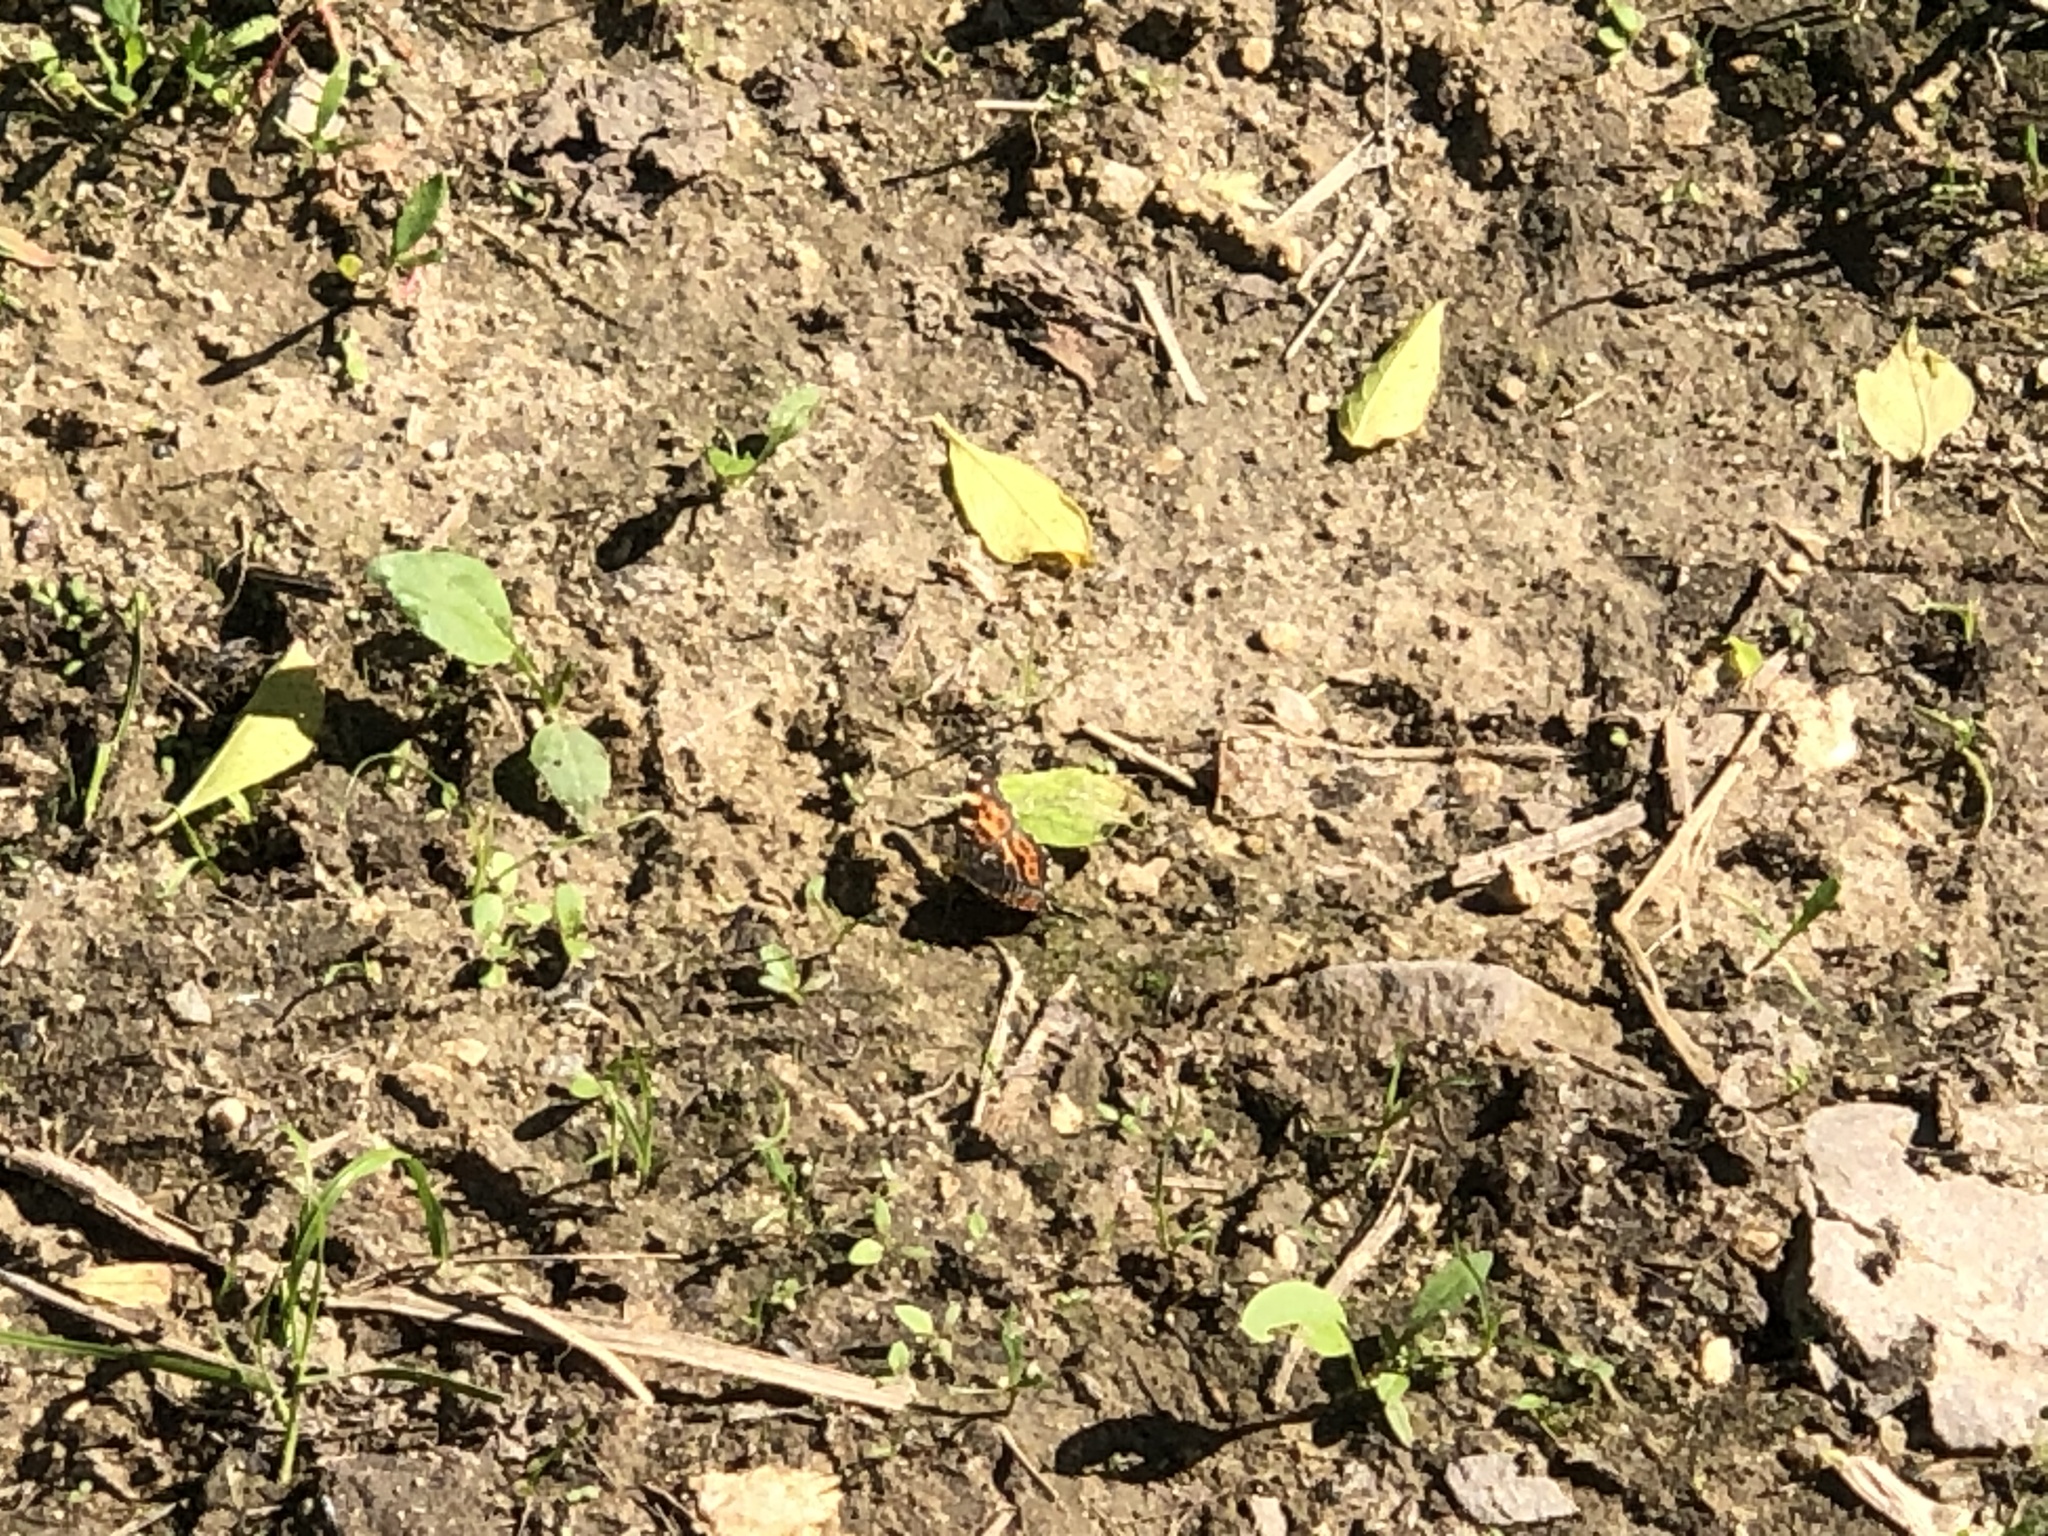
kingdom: Animalia
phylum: Arthropoda
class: Insecta
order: Lepidoptera
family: Nymphalidae
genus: Araschnia
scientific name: Araschnia levana
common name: Map butterfly
